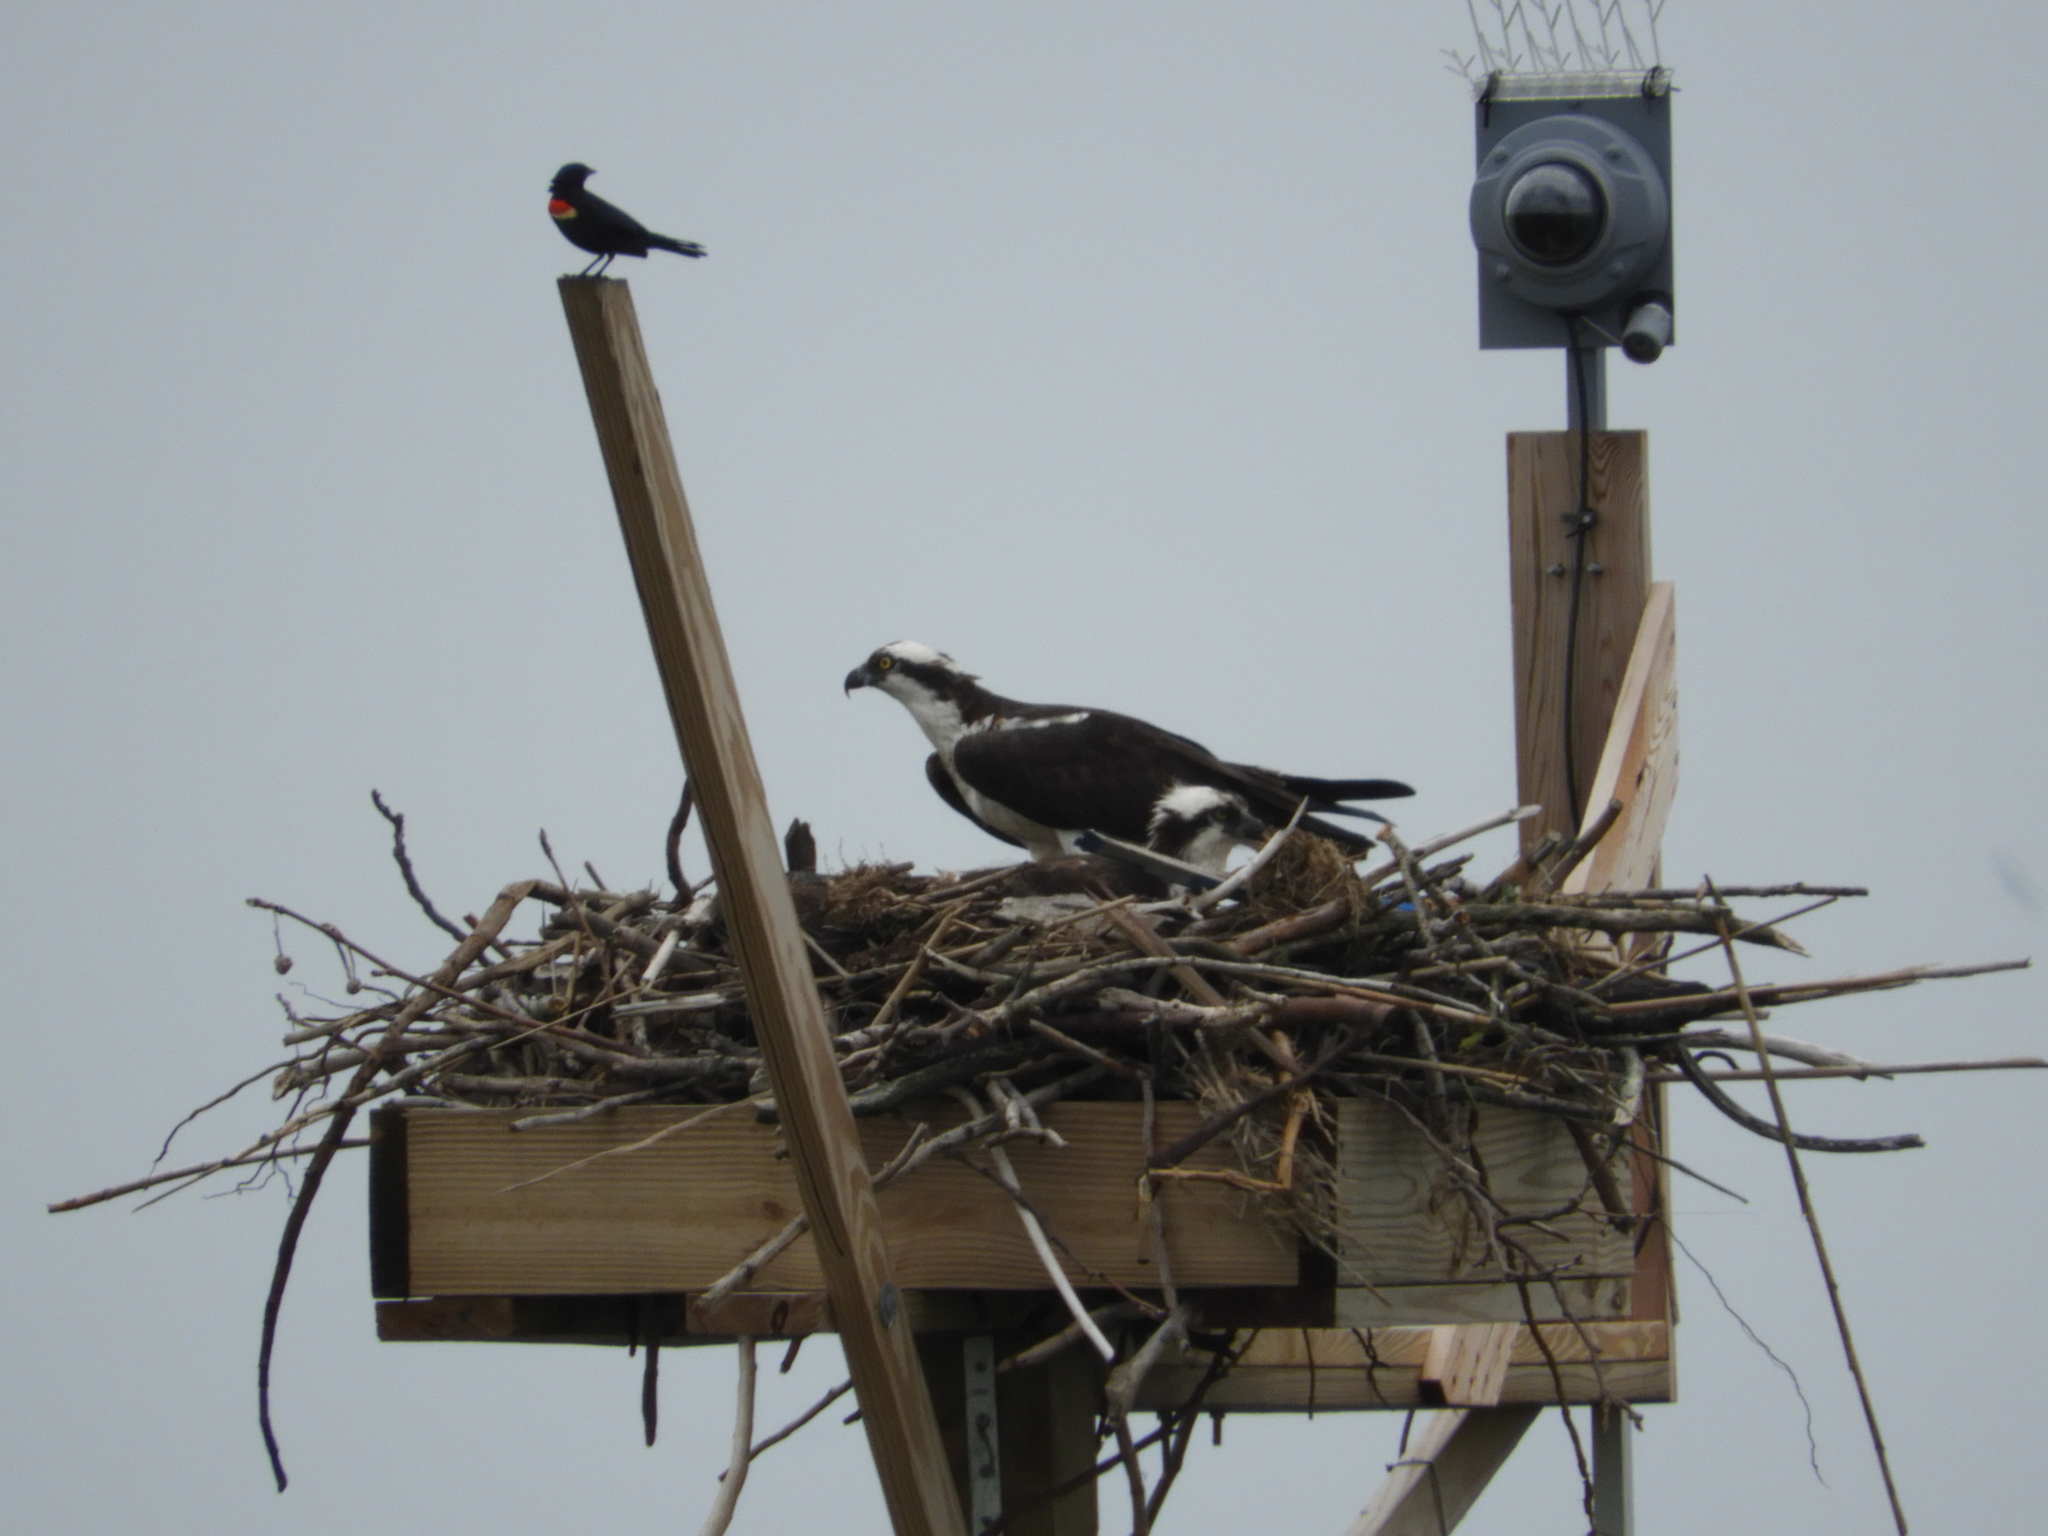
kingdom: Animalia
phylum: Chordata
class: Aves
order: Accipitriformes
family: Pandionidae
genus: Pandion
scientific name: Pandion haliaetus
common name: Osprey
